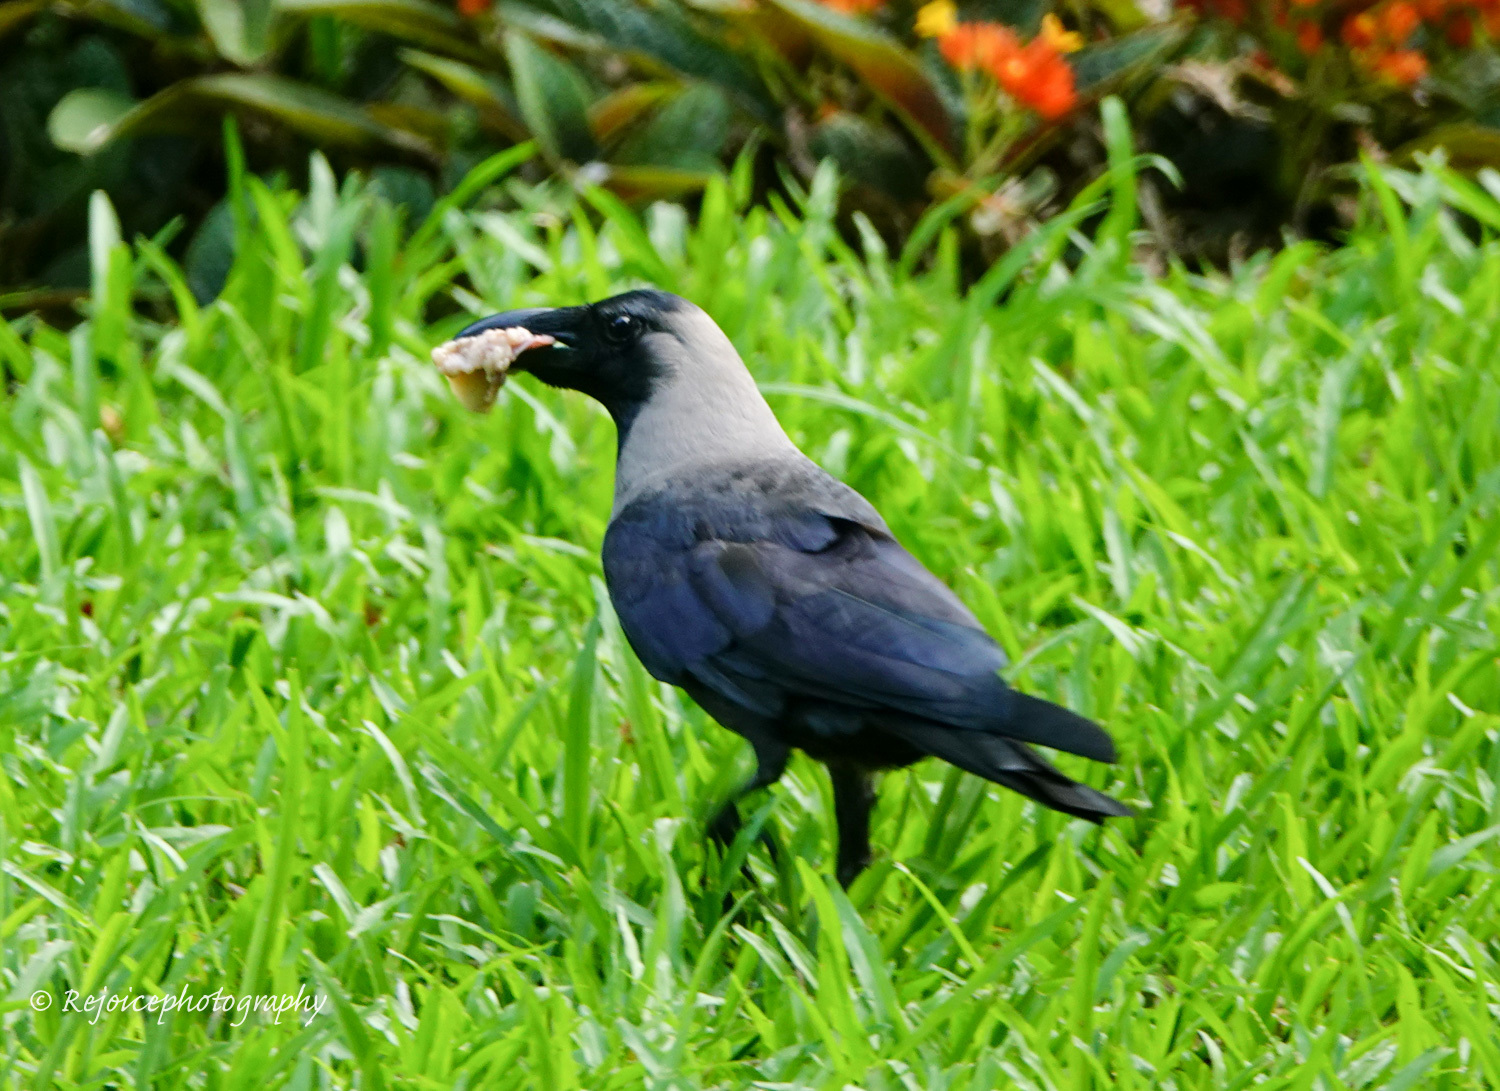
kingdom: Animalia
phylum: Chordata
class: Aves
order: Passeriformes
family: Corvidae
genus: Corvus
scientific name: Corvus splendens
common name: House crow
